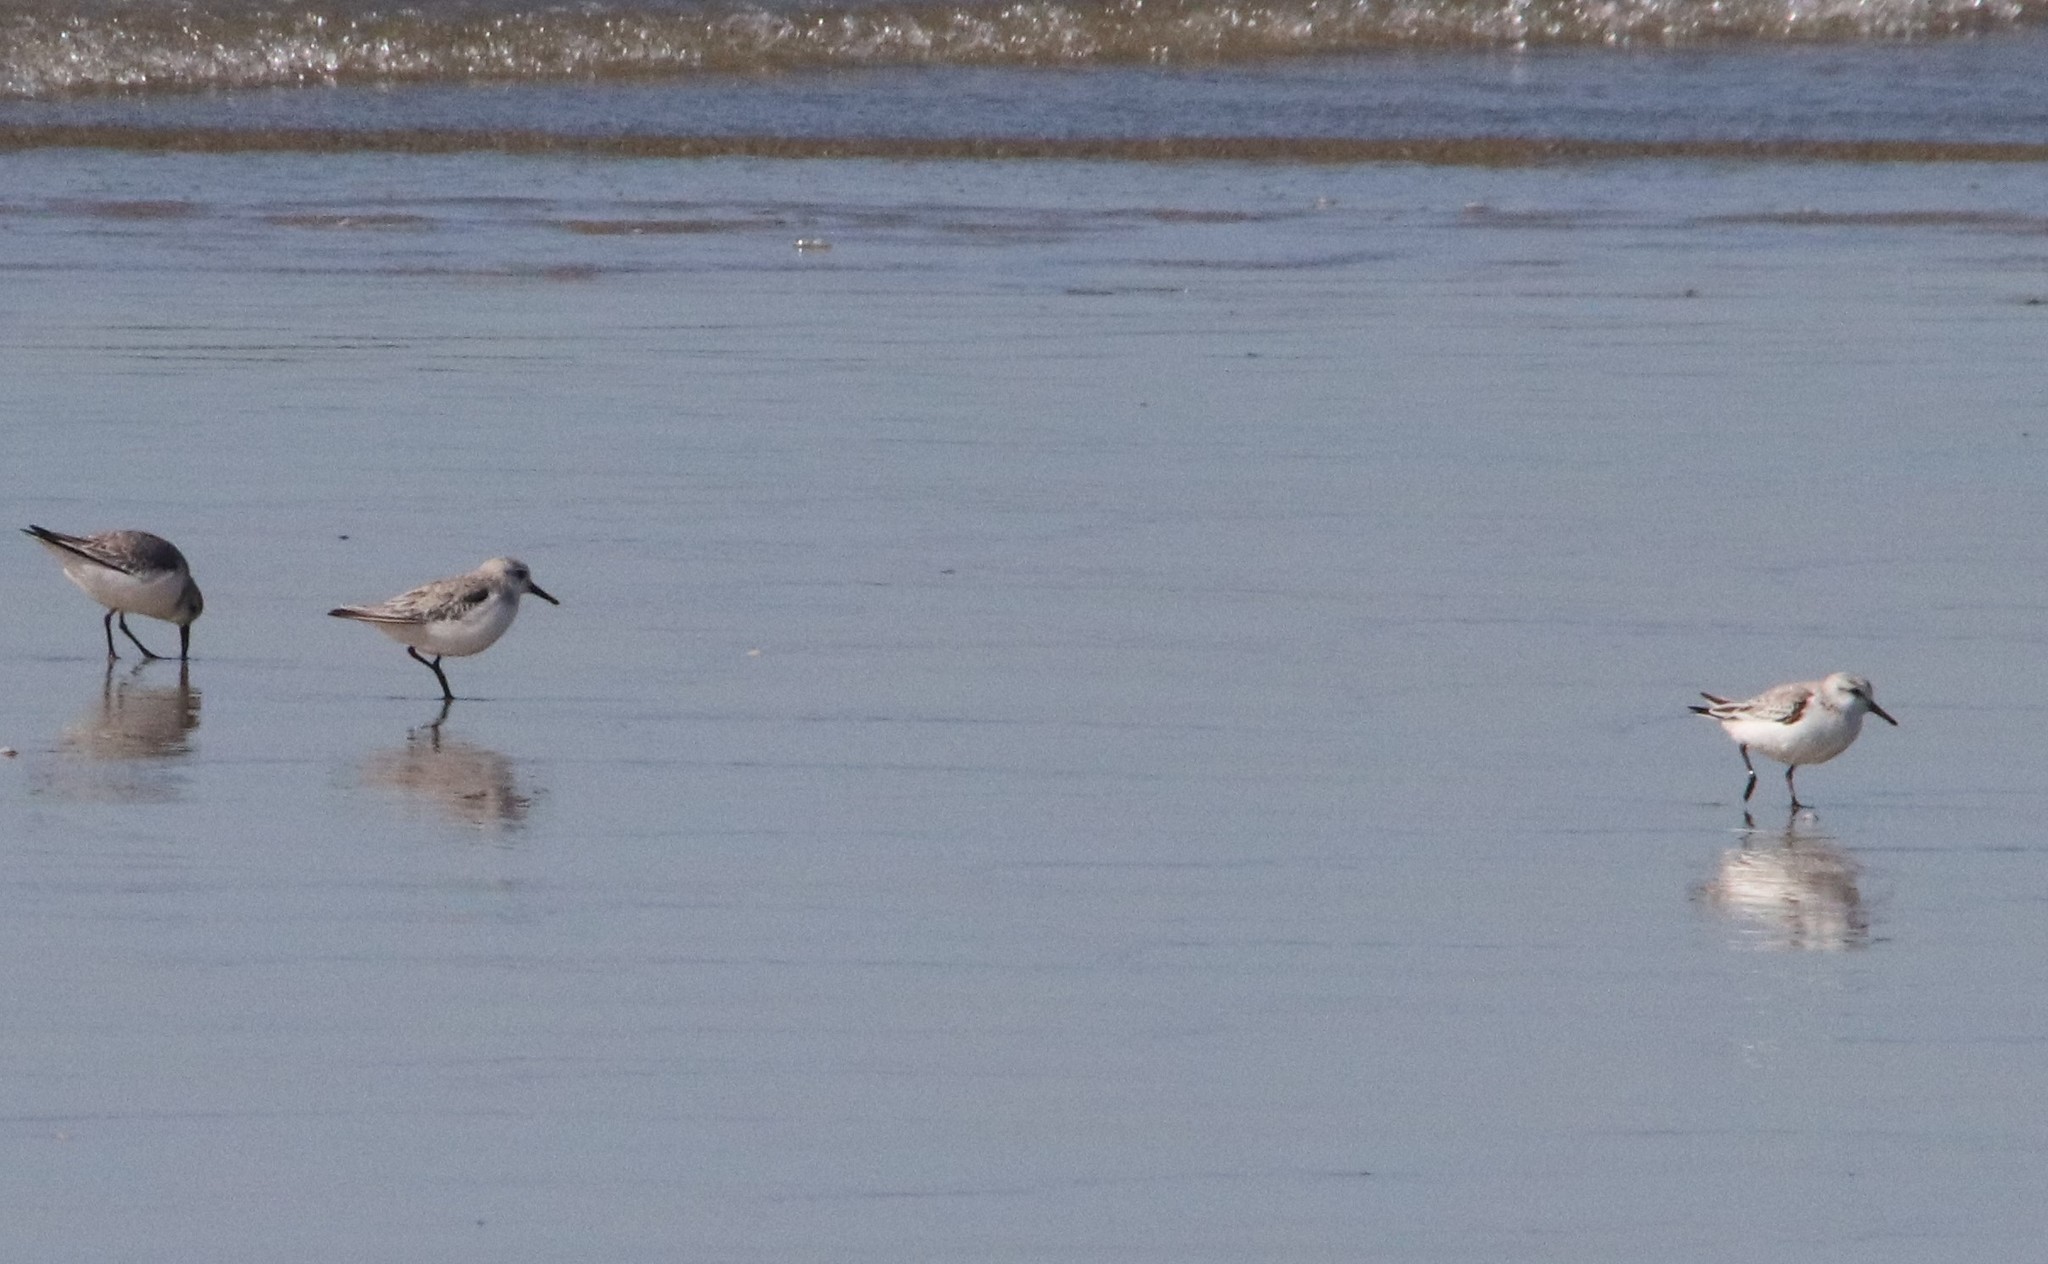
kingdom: Animalia
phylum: Chordata
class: Aves
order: Charadriiformes
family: Scolopacidae
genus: Calidris
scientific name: Calidris alba
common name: Sanderling
